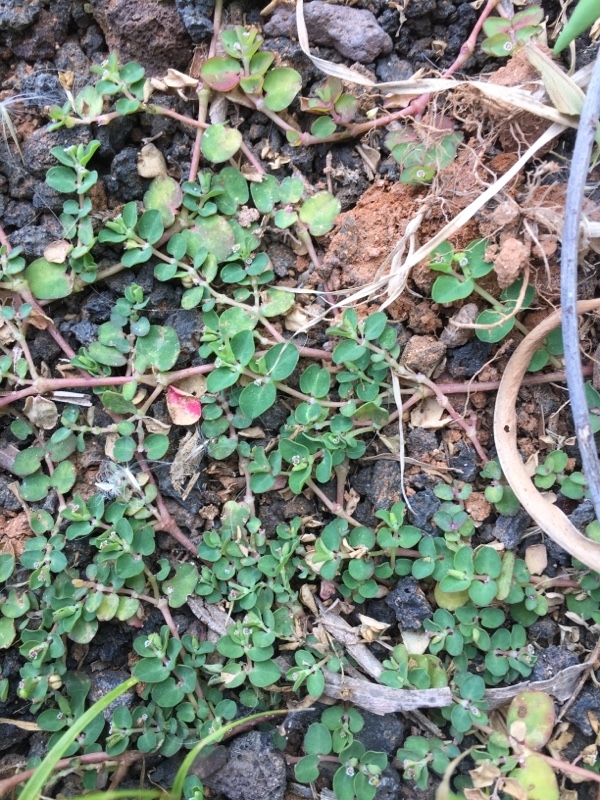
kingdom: Plantae
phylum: Tracheophyta
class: Magnoliopsida
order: Malpighiales
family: Euphorbiaceae
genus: Euphorbia
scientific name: Euphorbia serpens
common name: Matted sandmat
